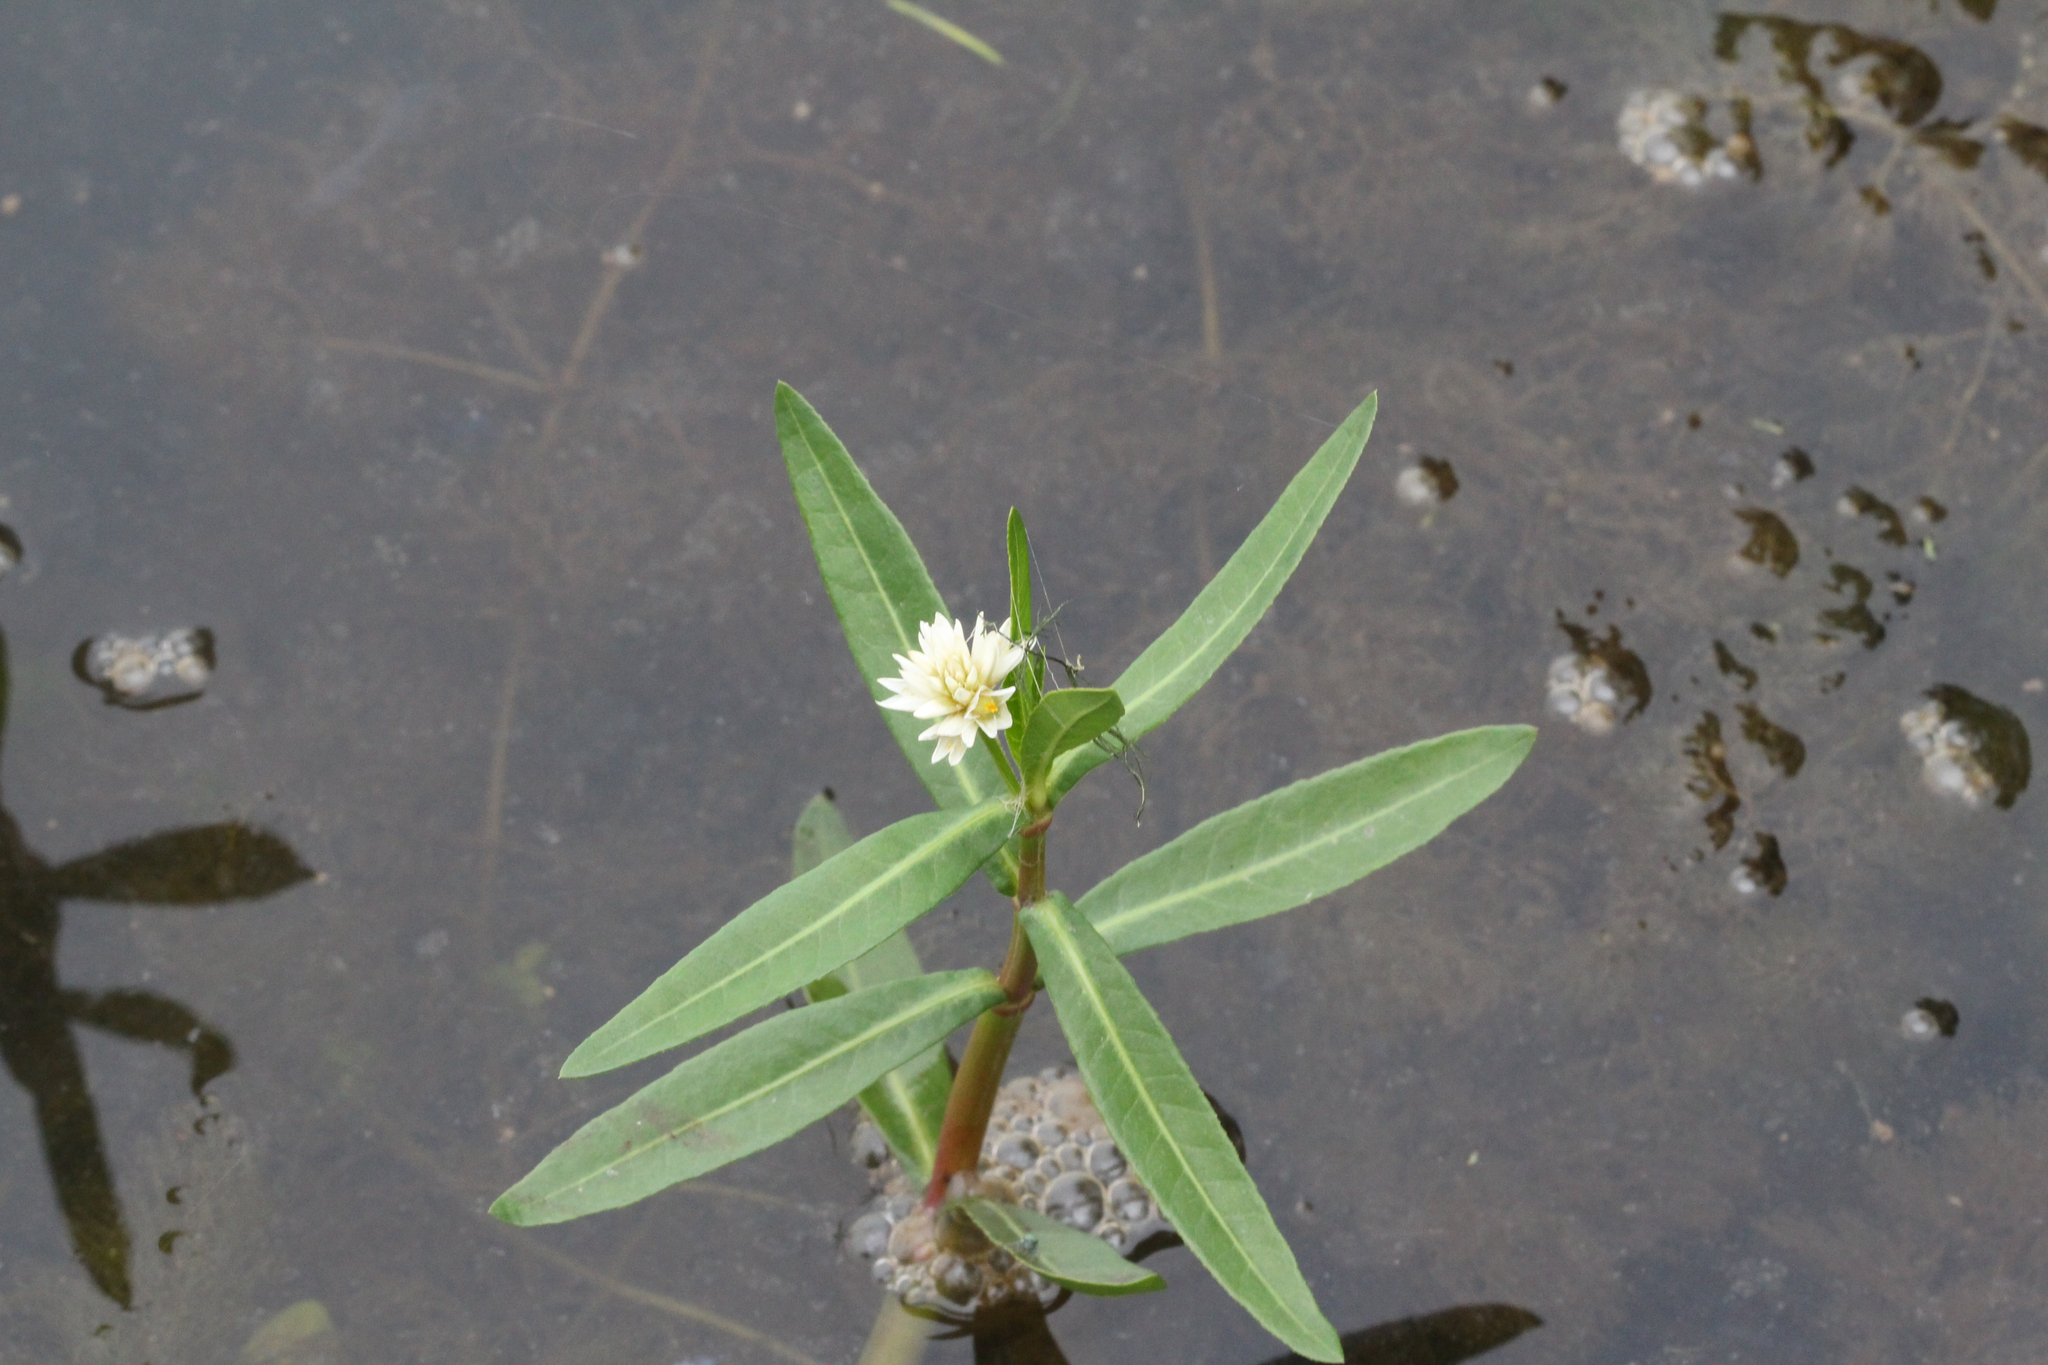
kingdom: Plantae
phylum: Tracheophyta
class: Magnoliopsida
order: Caryophyllales
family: Amaranthaceae
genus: Alternanthera
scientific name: Alternanthera philoxeroides
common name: Alligatorweed
